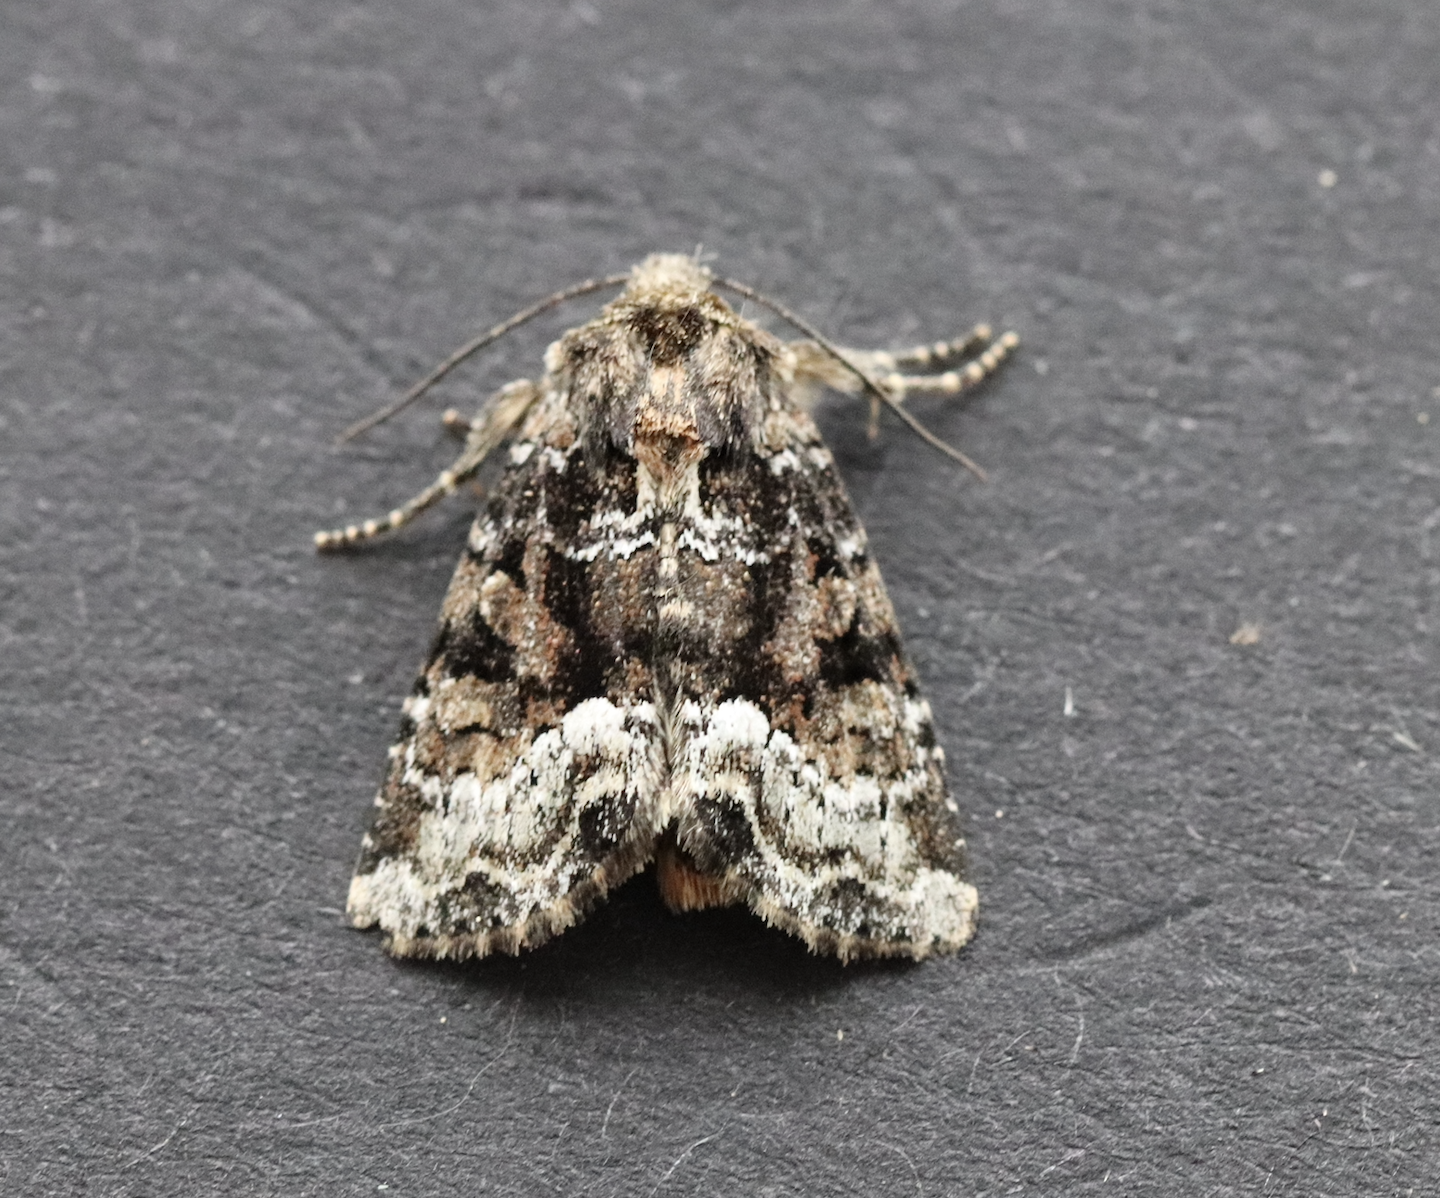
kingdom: Animalia
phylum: Arthropoda
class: Insecta
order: Lepidoptera
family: Noctuidae
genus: Oligia
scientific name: Oligia strigilis
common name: Marbled minor
